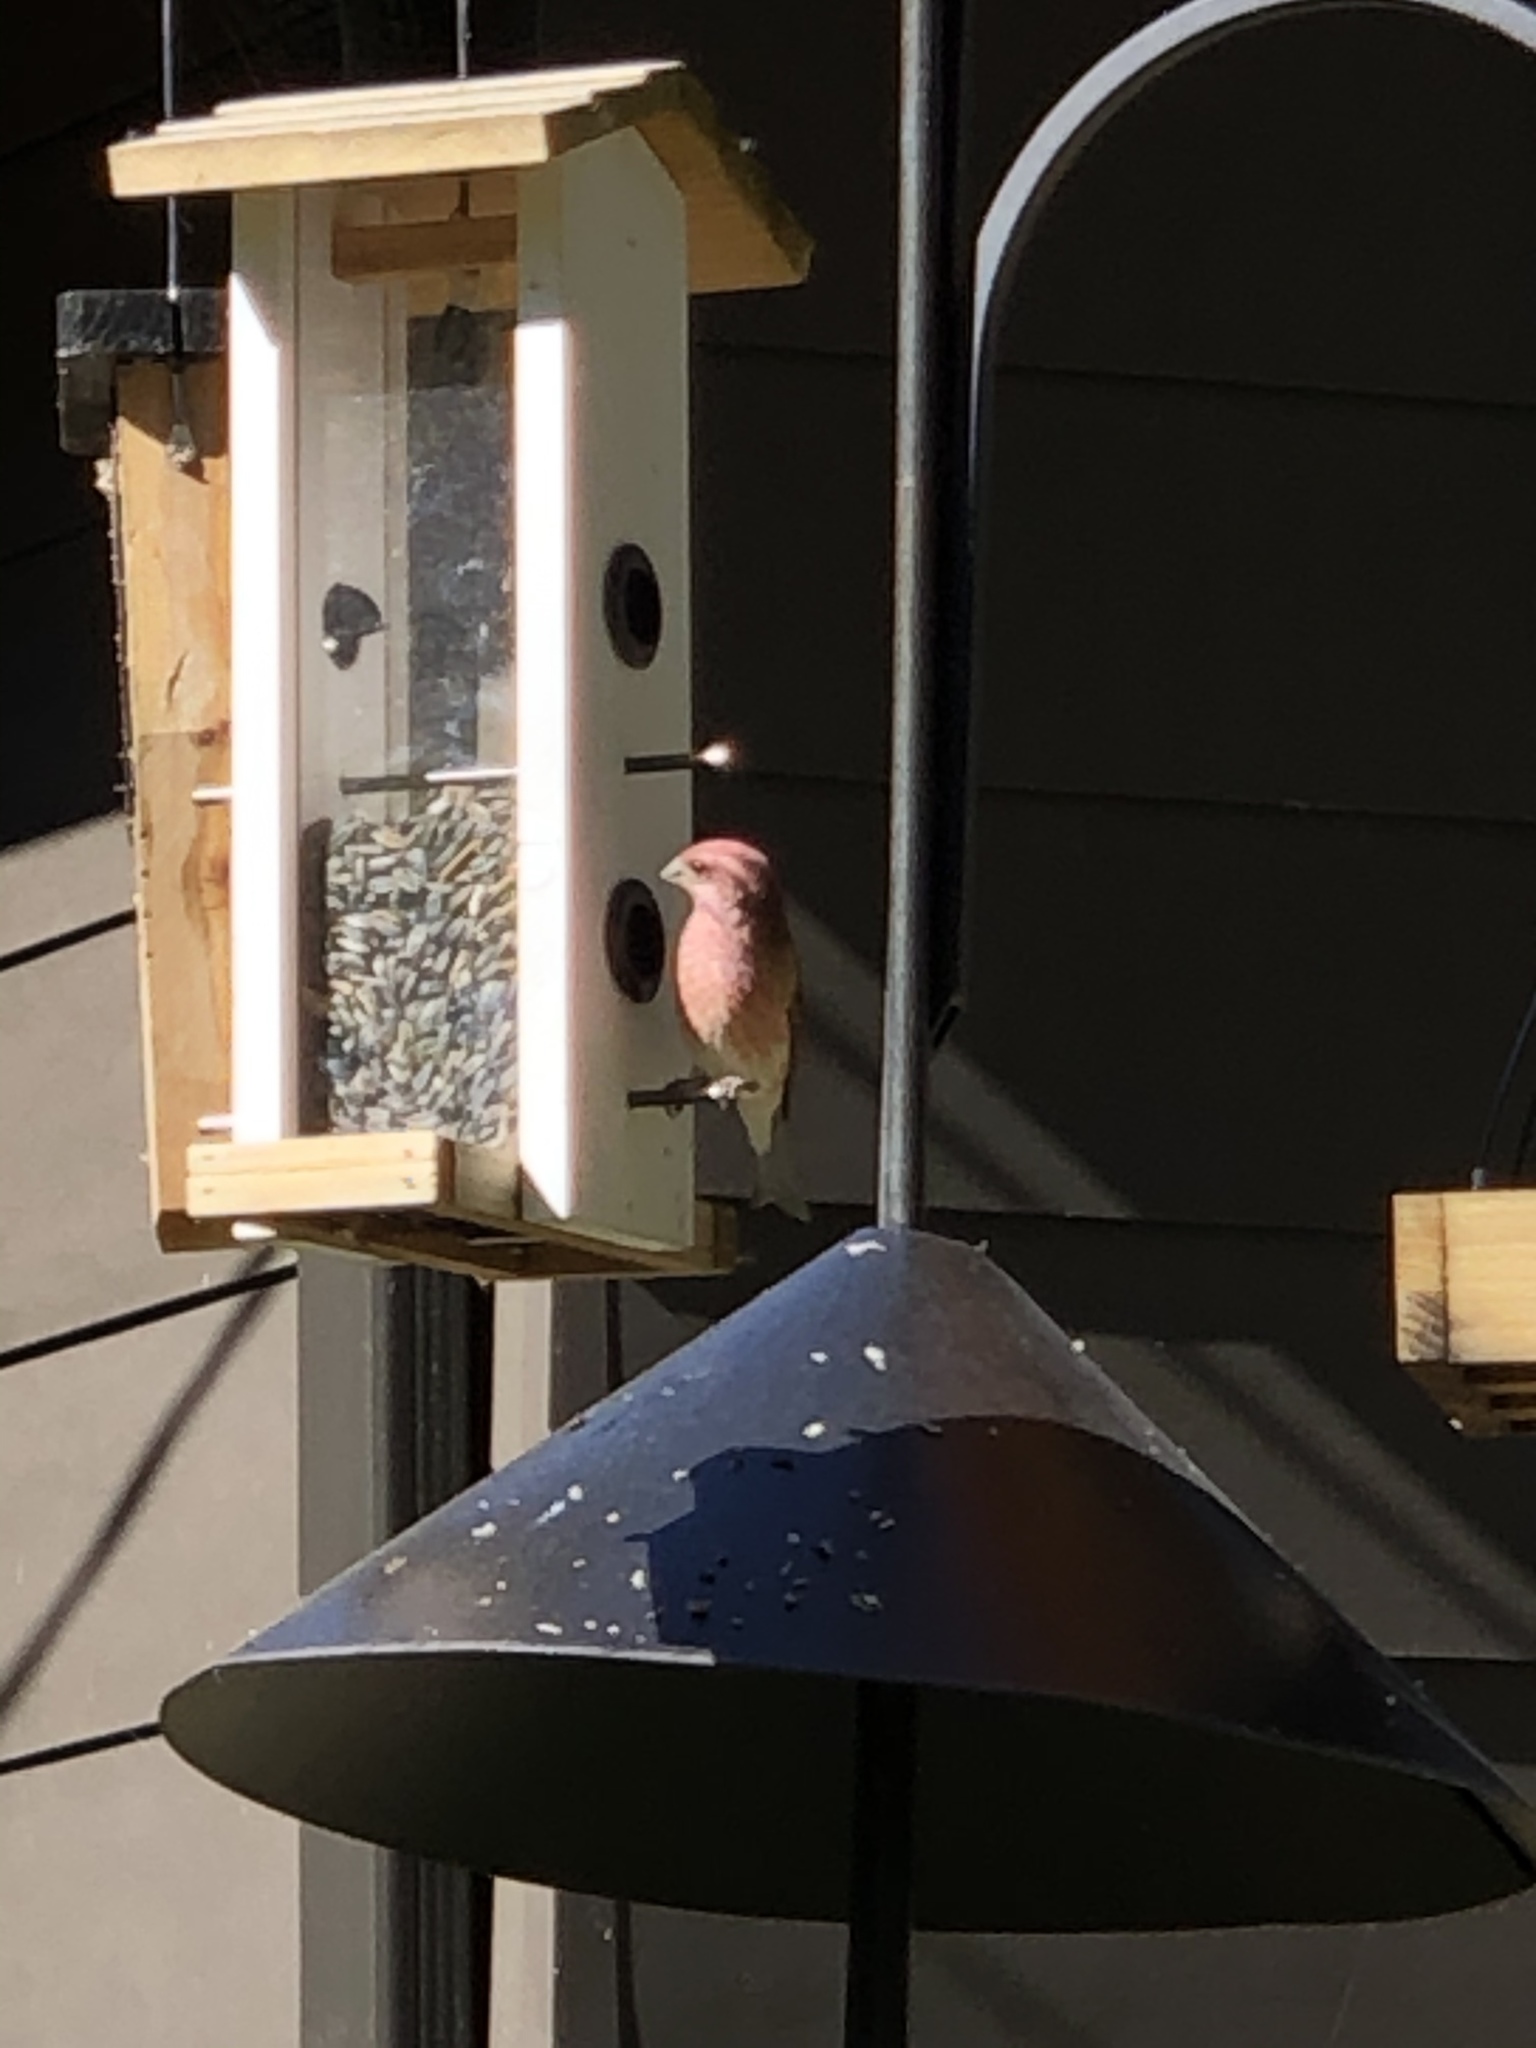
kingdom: Animalia
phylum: Chordata
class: Aves
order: Passeriformes
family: Fringillidae
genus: Haemorhous
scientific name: Haemorhous purpureus
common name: Purple finch
